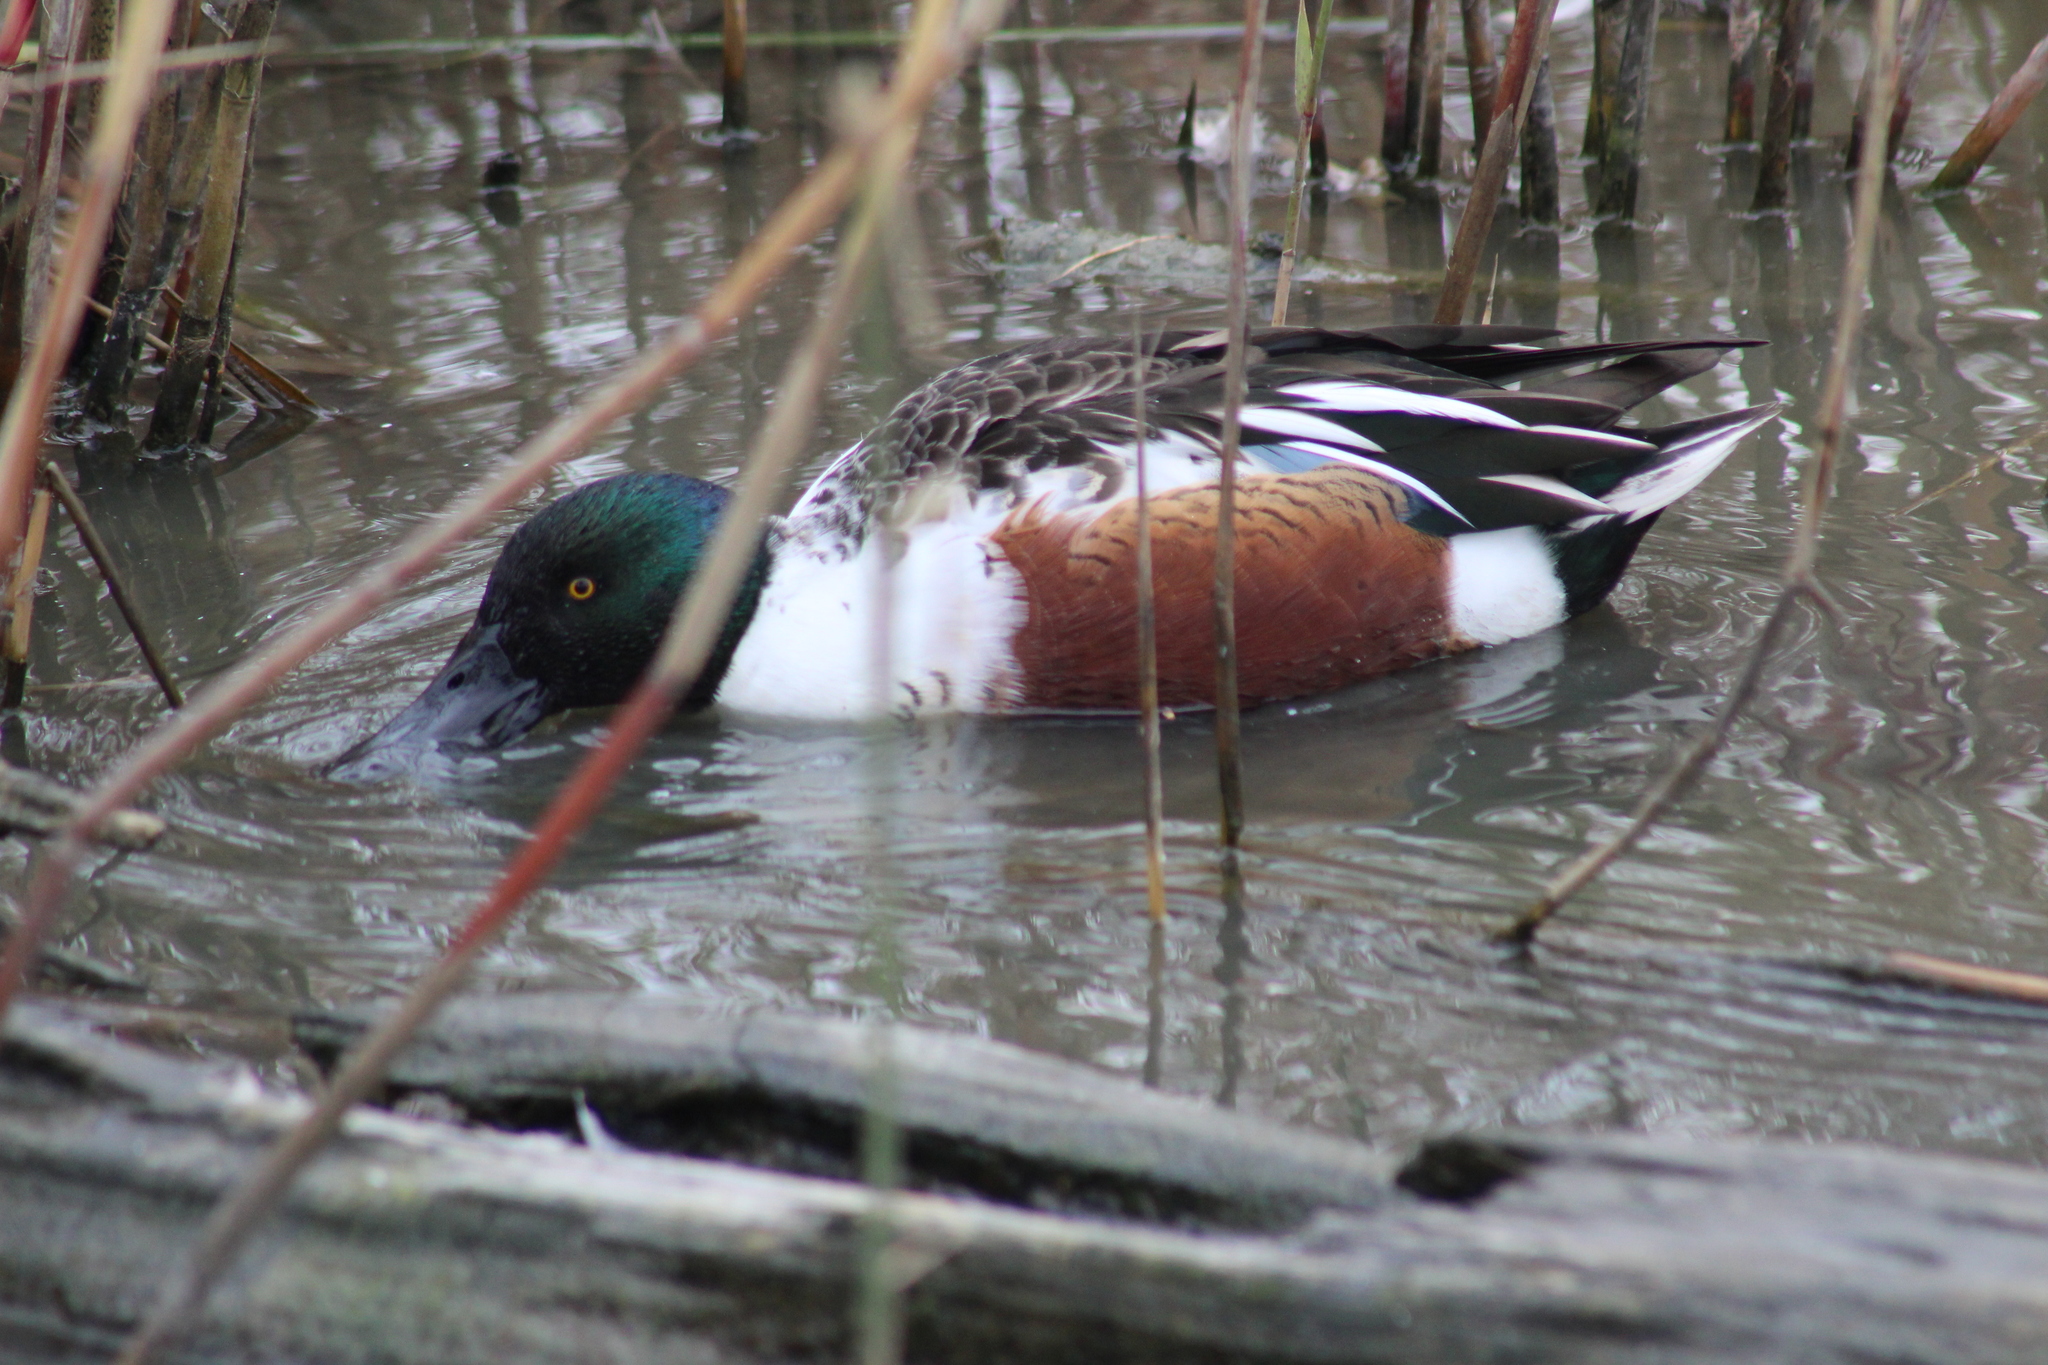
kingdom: Animalia
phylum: Chordata
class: Aves
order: Anseriformes
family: Anatidae
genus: Spatula
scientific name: Spatula clypeata
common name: Northern shoveler
